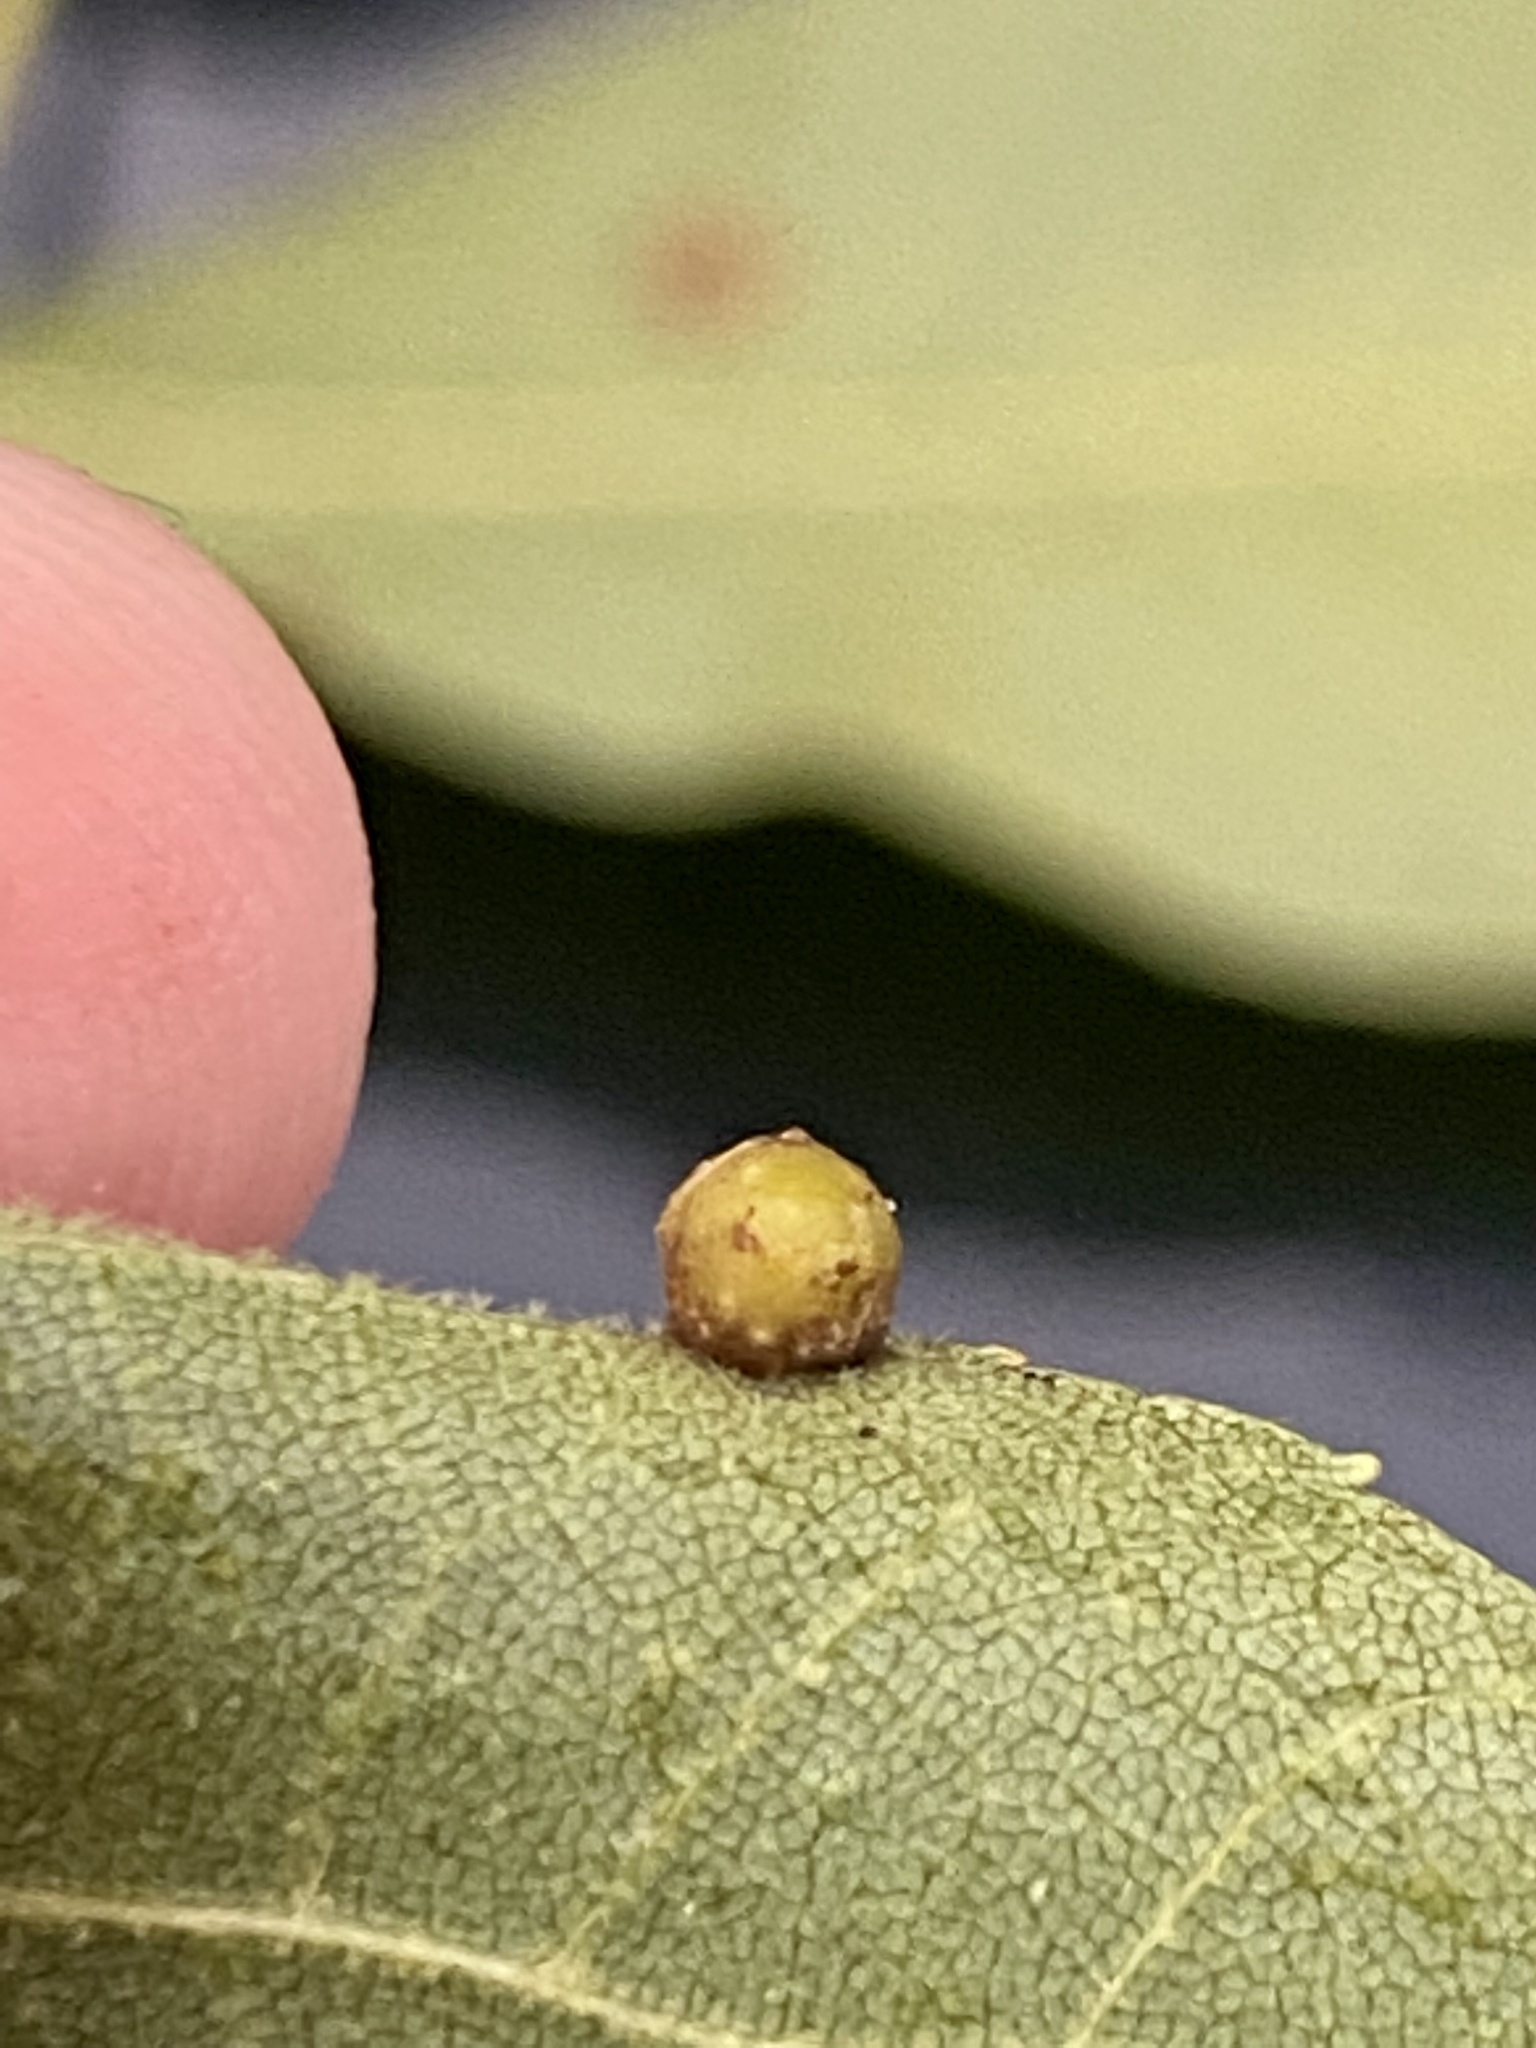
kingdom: Animalia
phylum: Arthropoda
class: Insecta
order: Diptera
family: Cecidomyiidae
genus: Caryomyia
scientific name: Caryomyia tuberculata
